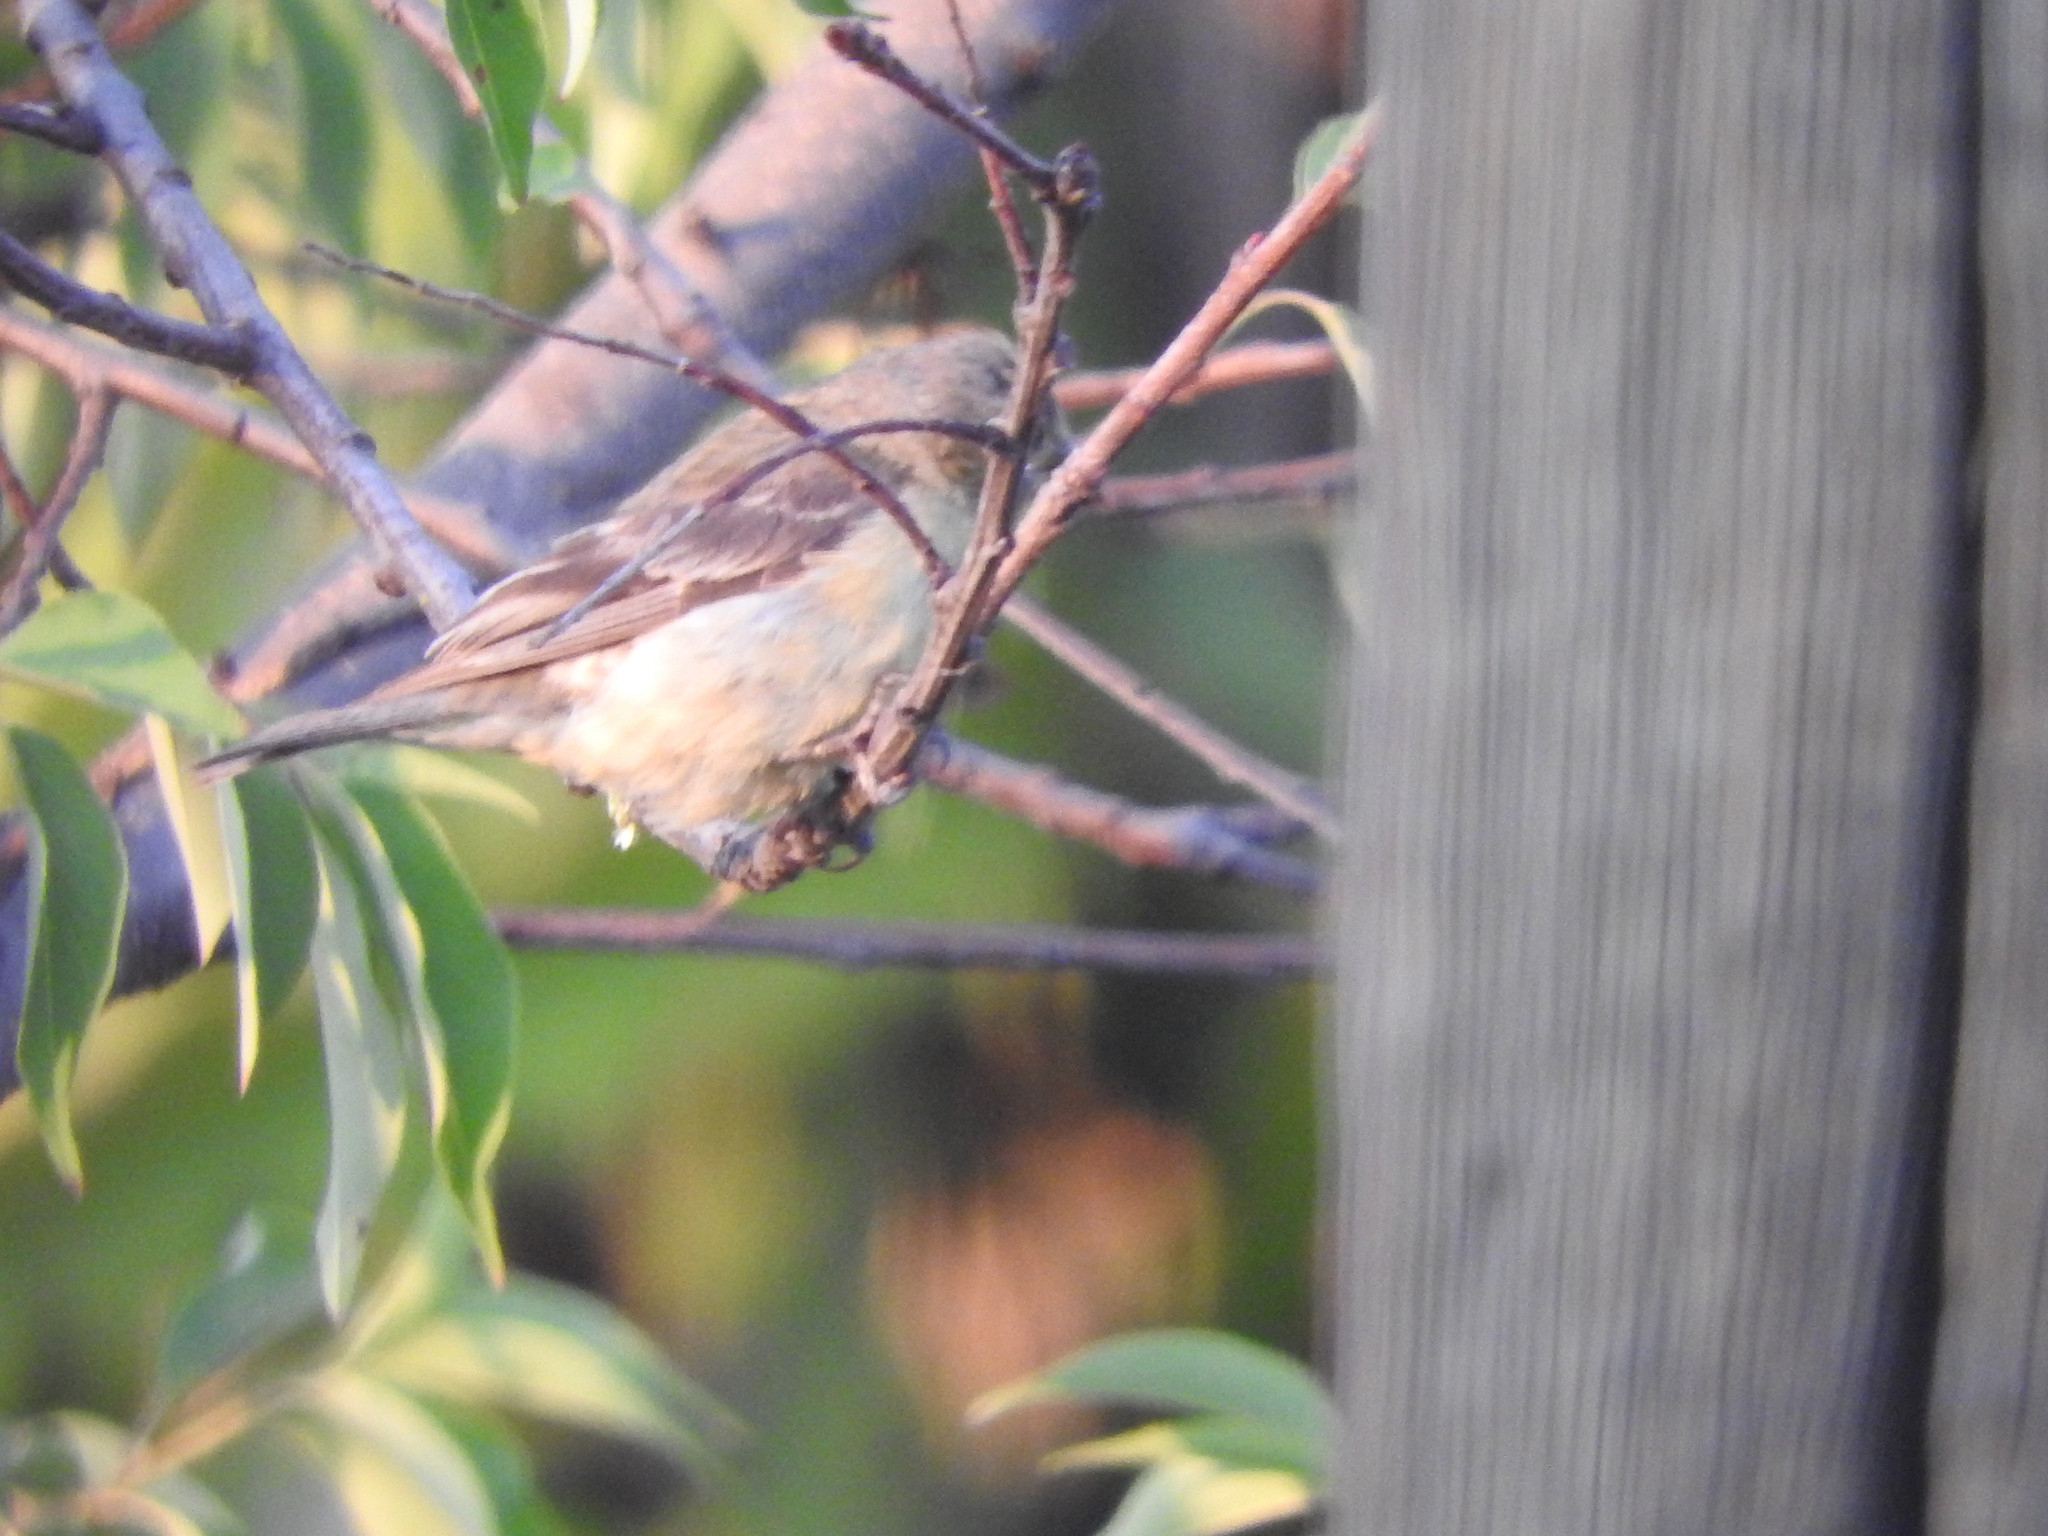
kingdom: Animalia
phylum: Chordata
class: Aves
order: Passeriformes
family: Fringillidae
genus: Spinus
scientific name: Spinus psaltria
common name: Lesser goldfinch
